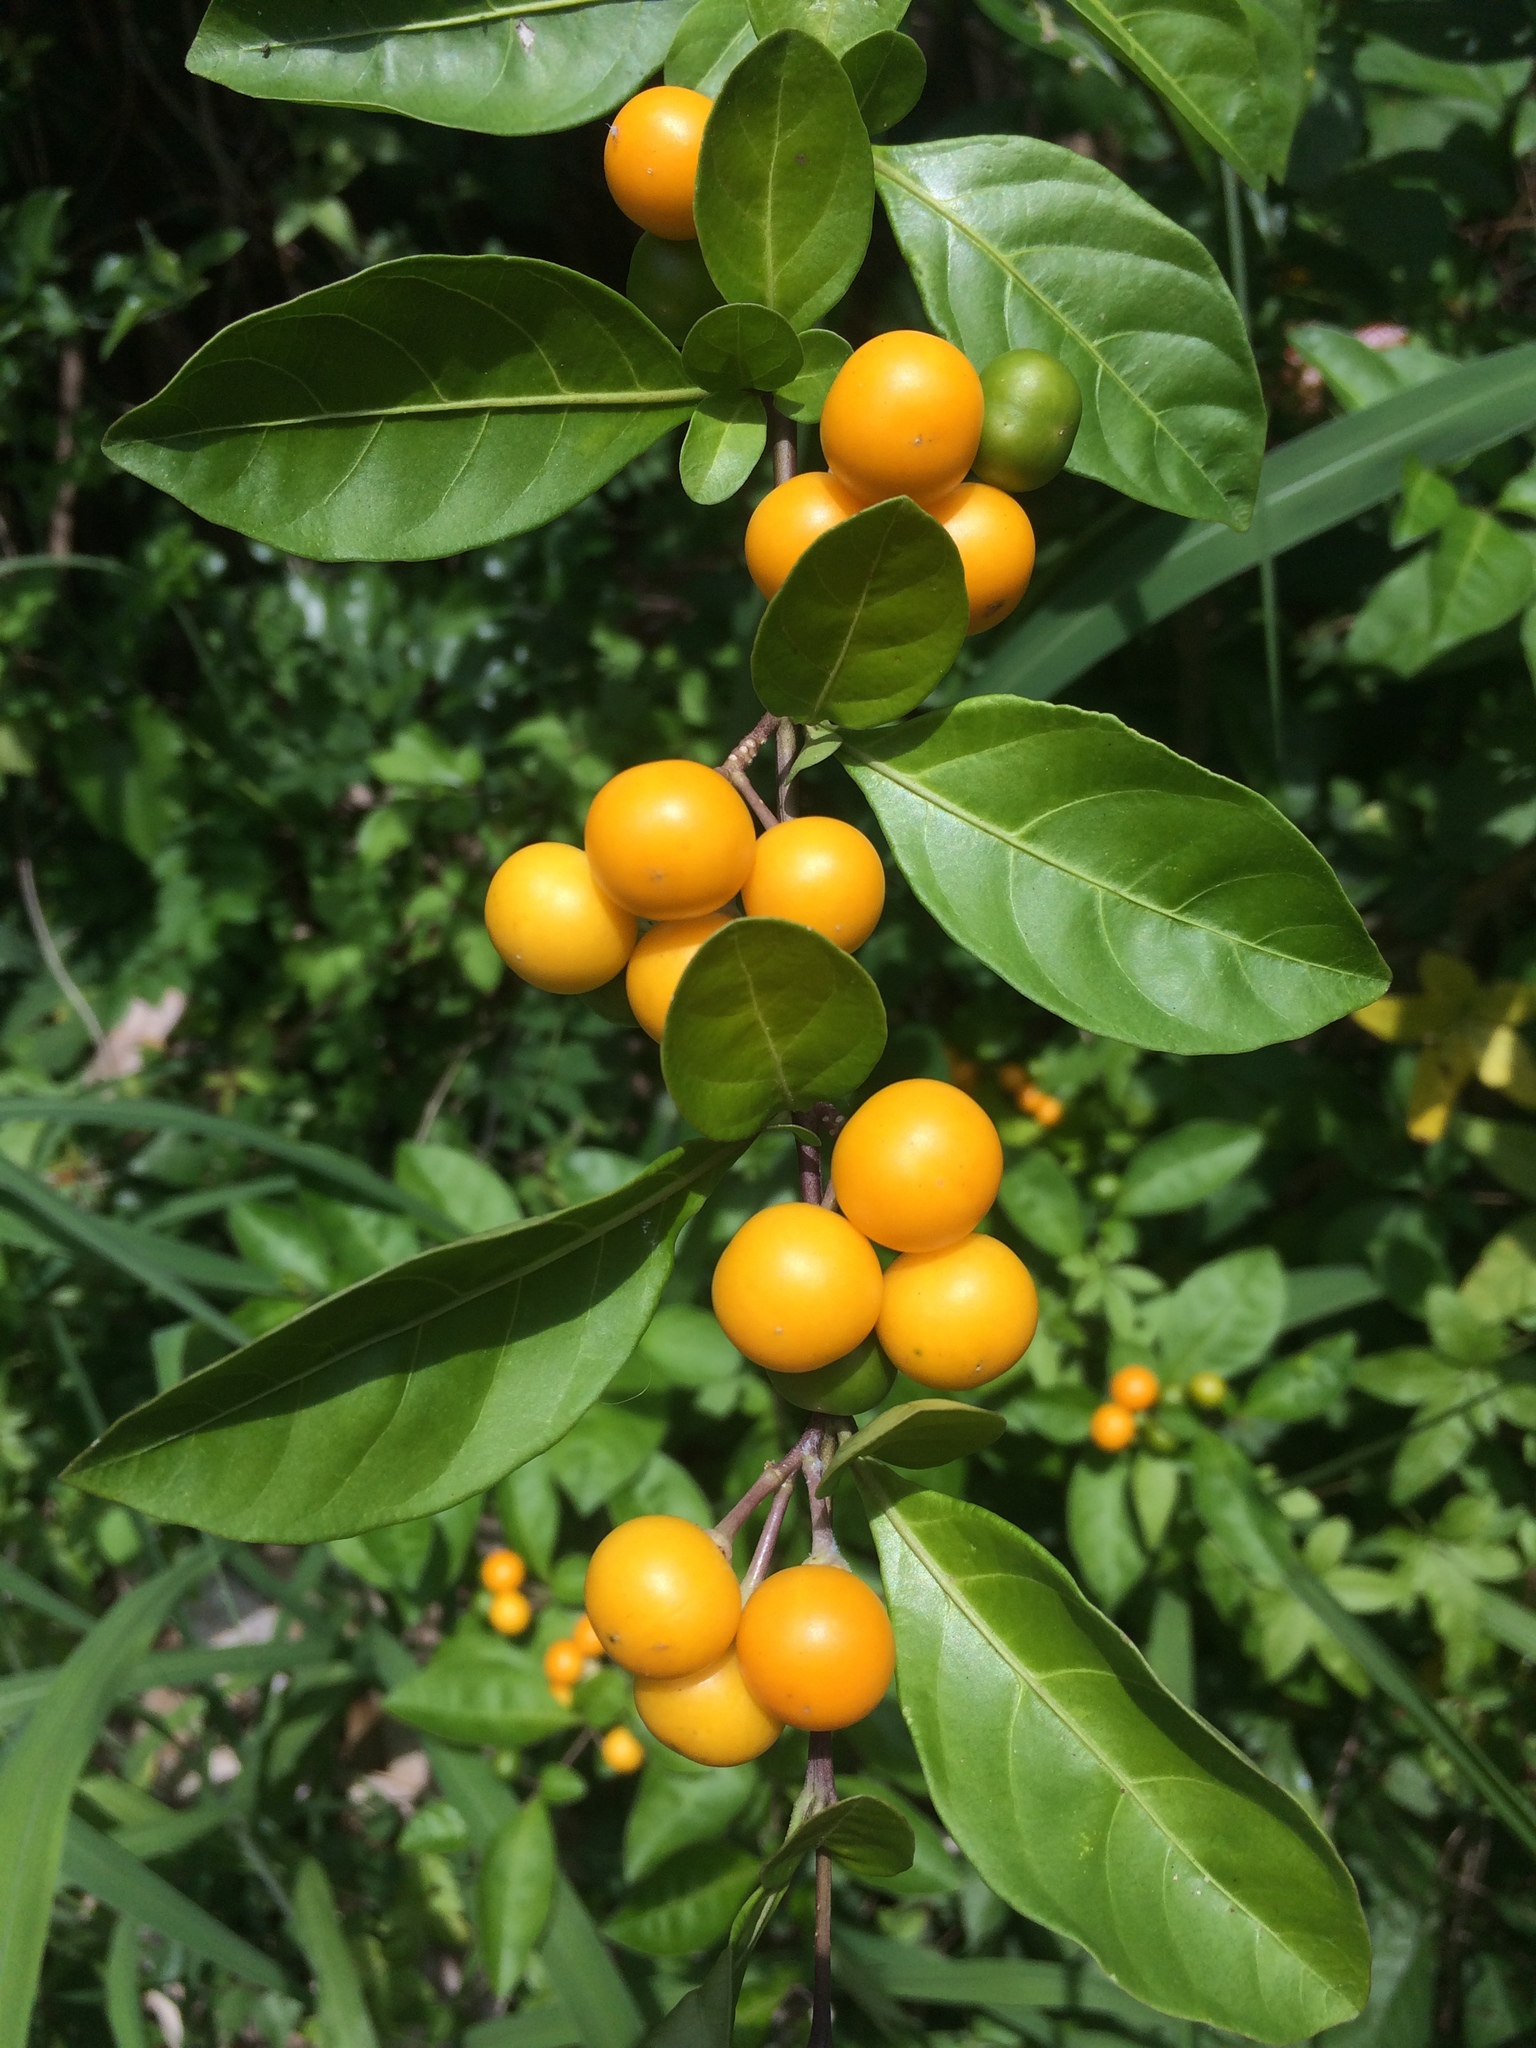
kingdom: Plantae
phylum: Tracheophyta
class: Magnoliopsida
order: Solanales
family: Solanaceae
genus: Solanum
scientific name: Solanum diphyllum
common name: Twoleaf nightshade
